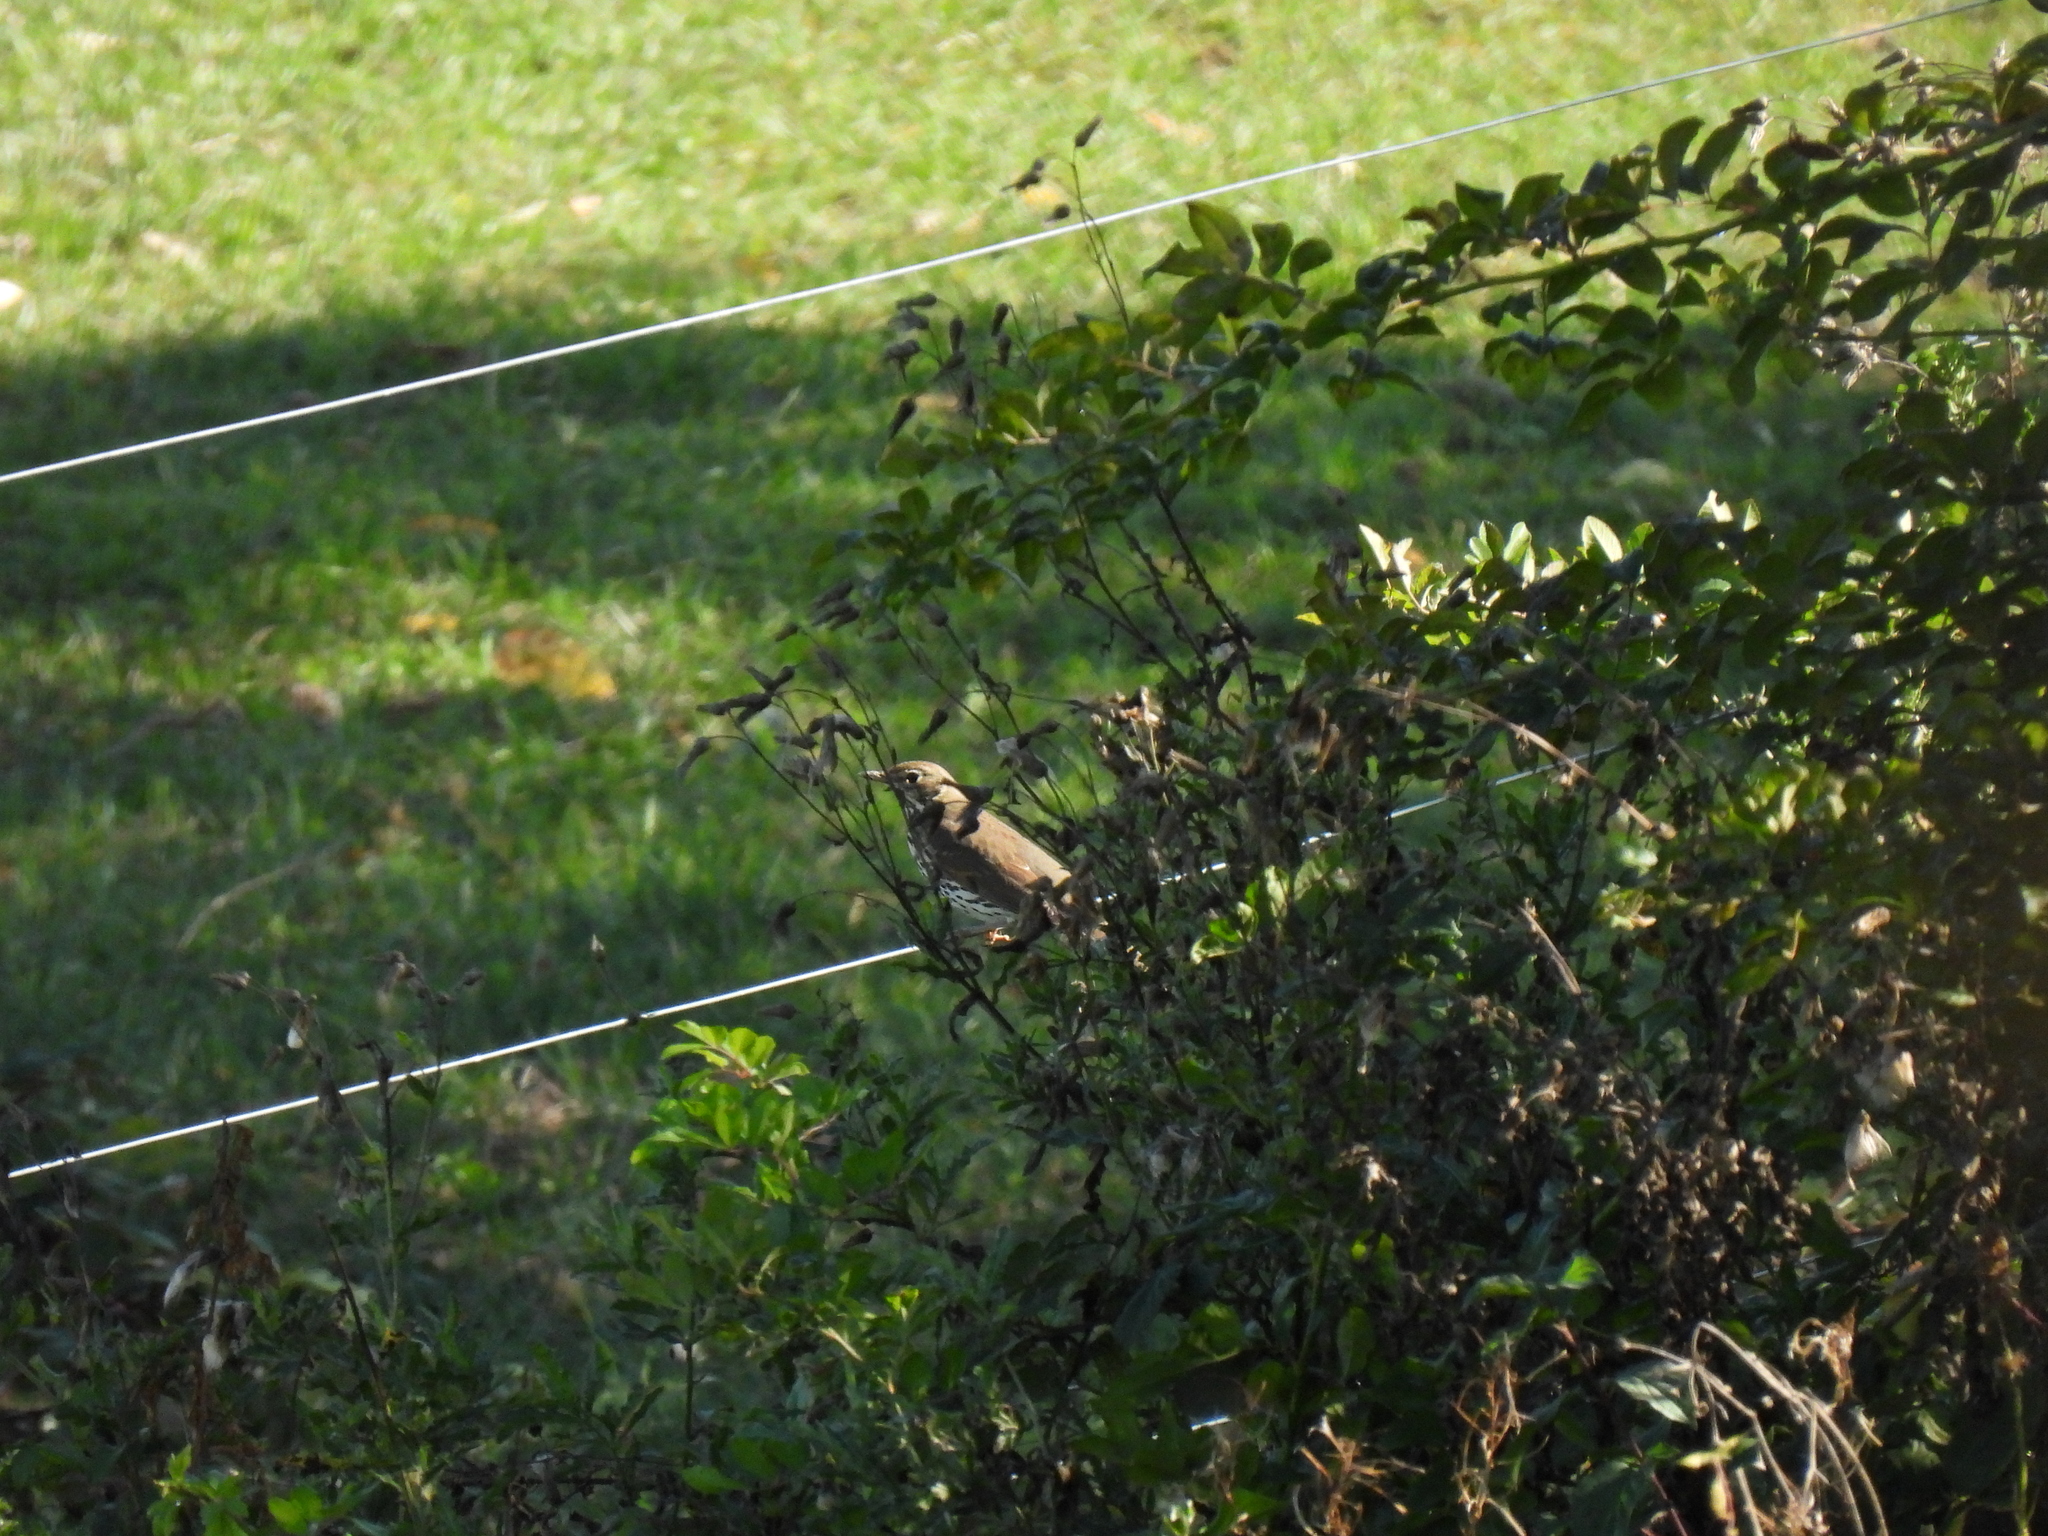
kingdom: Animalia
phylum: Chordata
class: Aves
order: Passeriformes
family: Turdidae
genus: Turdus
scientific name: Turdus philomelos
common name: Song thrush
